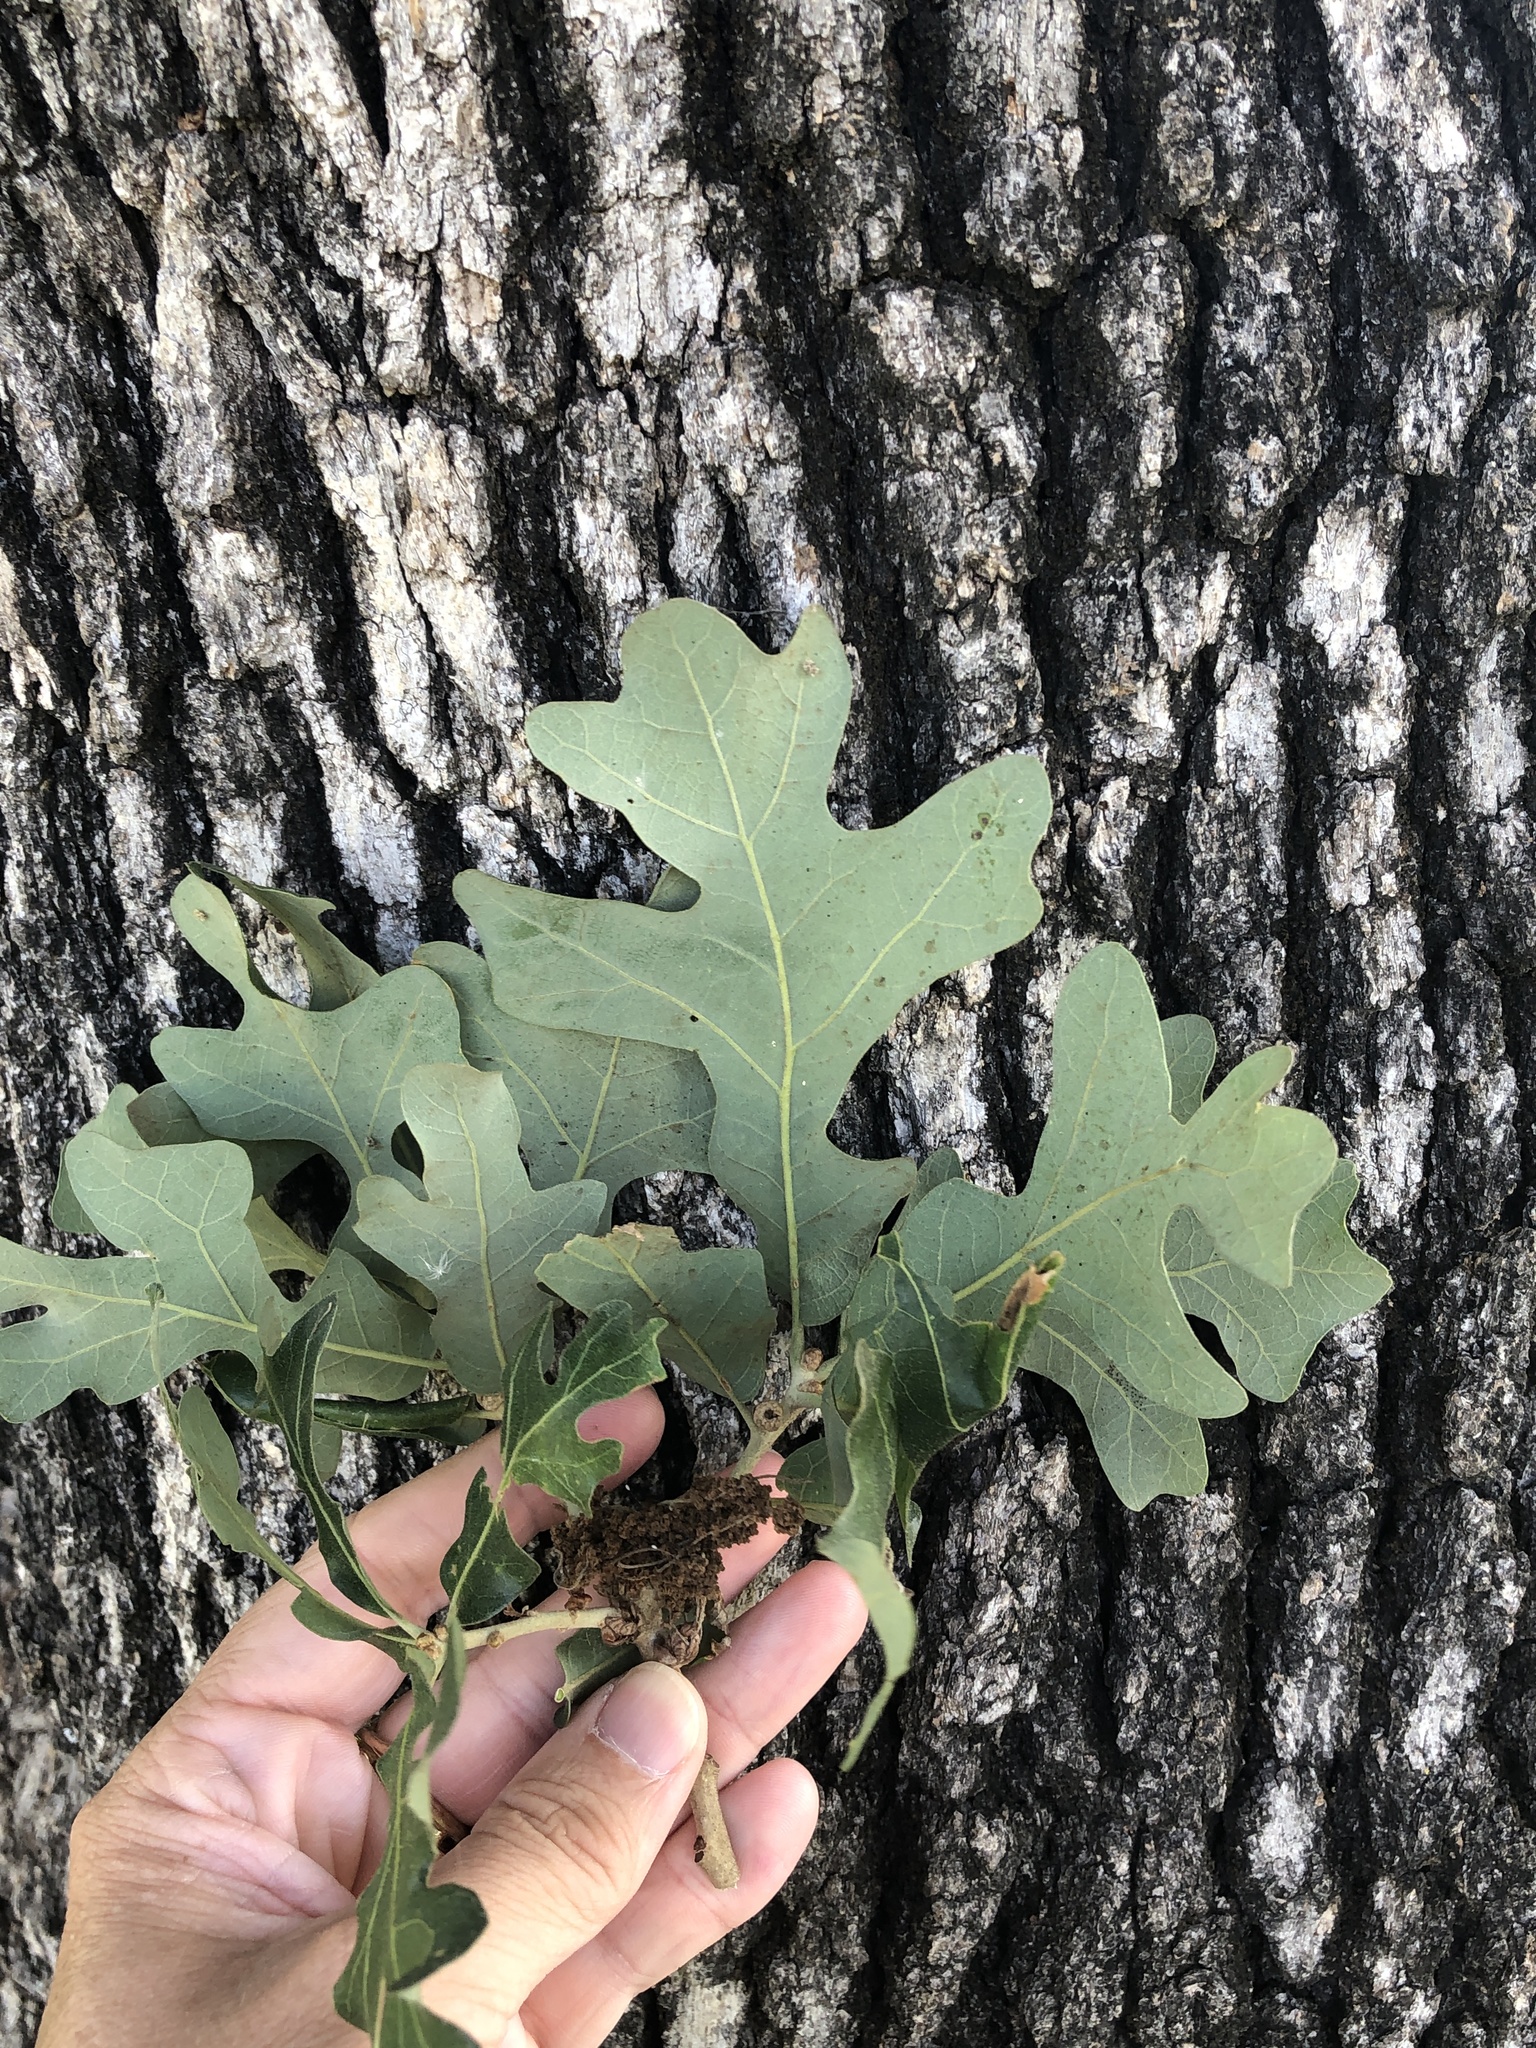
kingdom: Plantae
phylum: Tracheophyta
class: Magnoliopsida
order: Fagales
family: Fagaceae
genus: Quercus
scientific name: Quercus stellata
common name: Post oak
